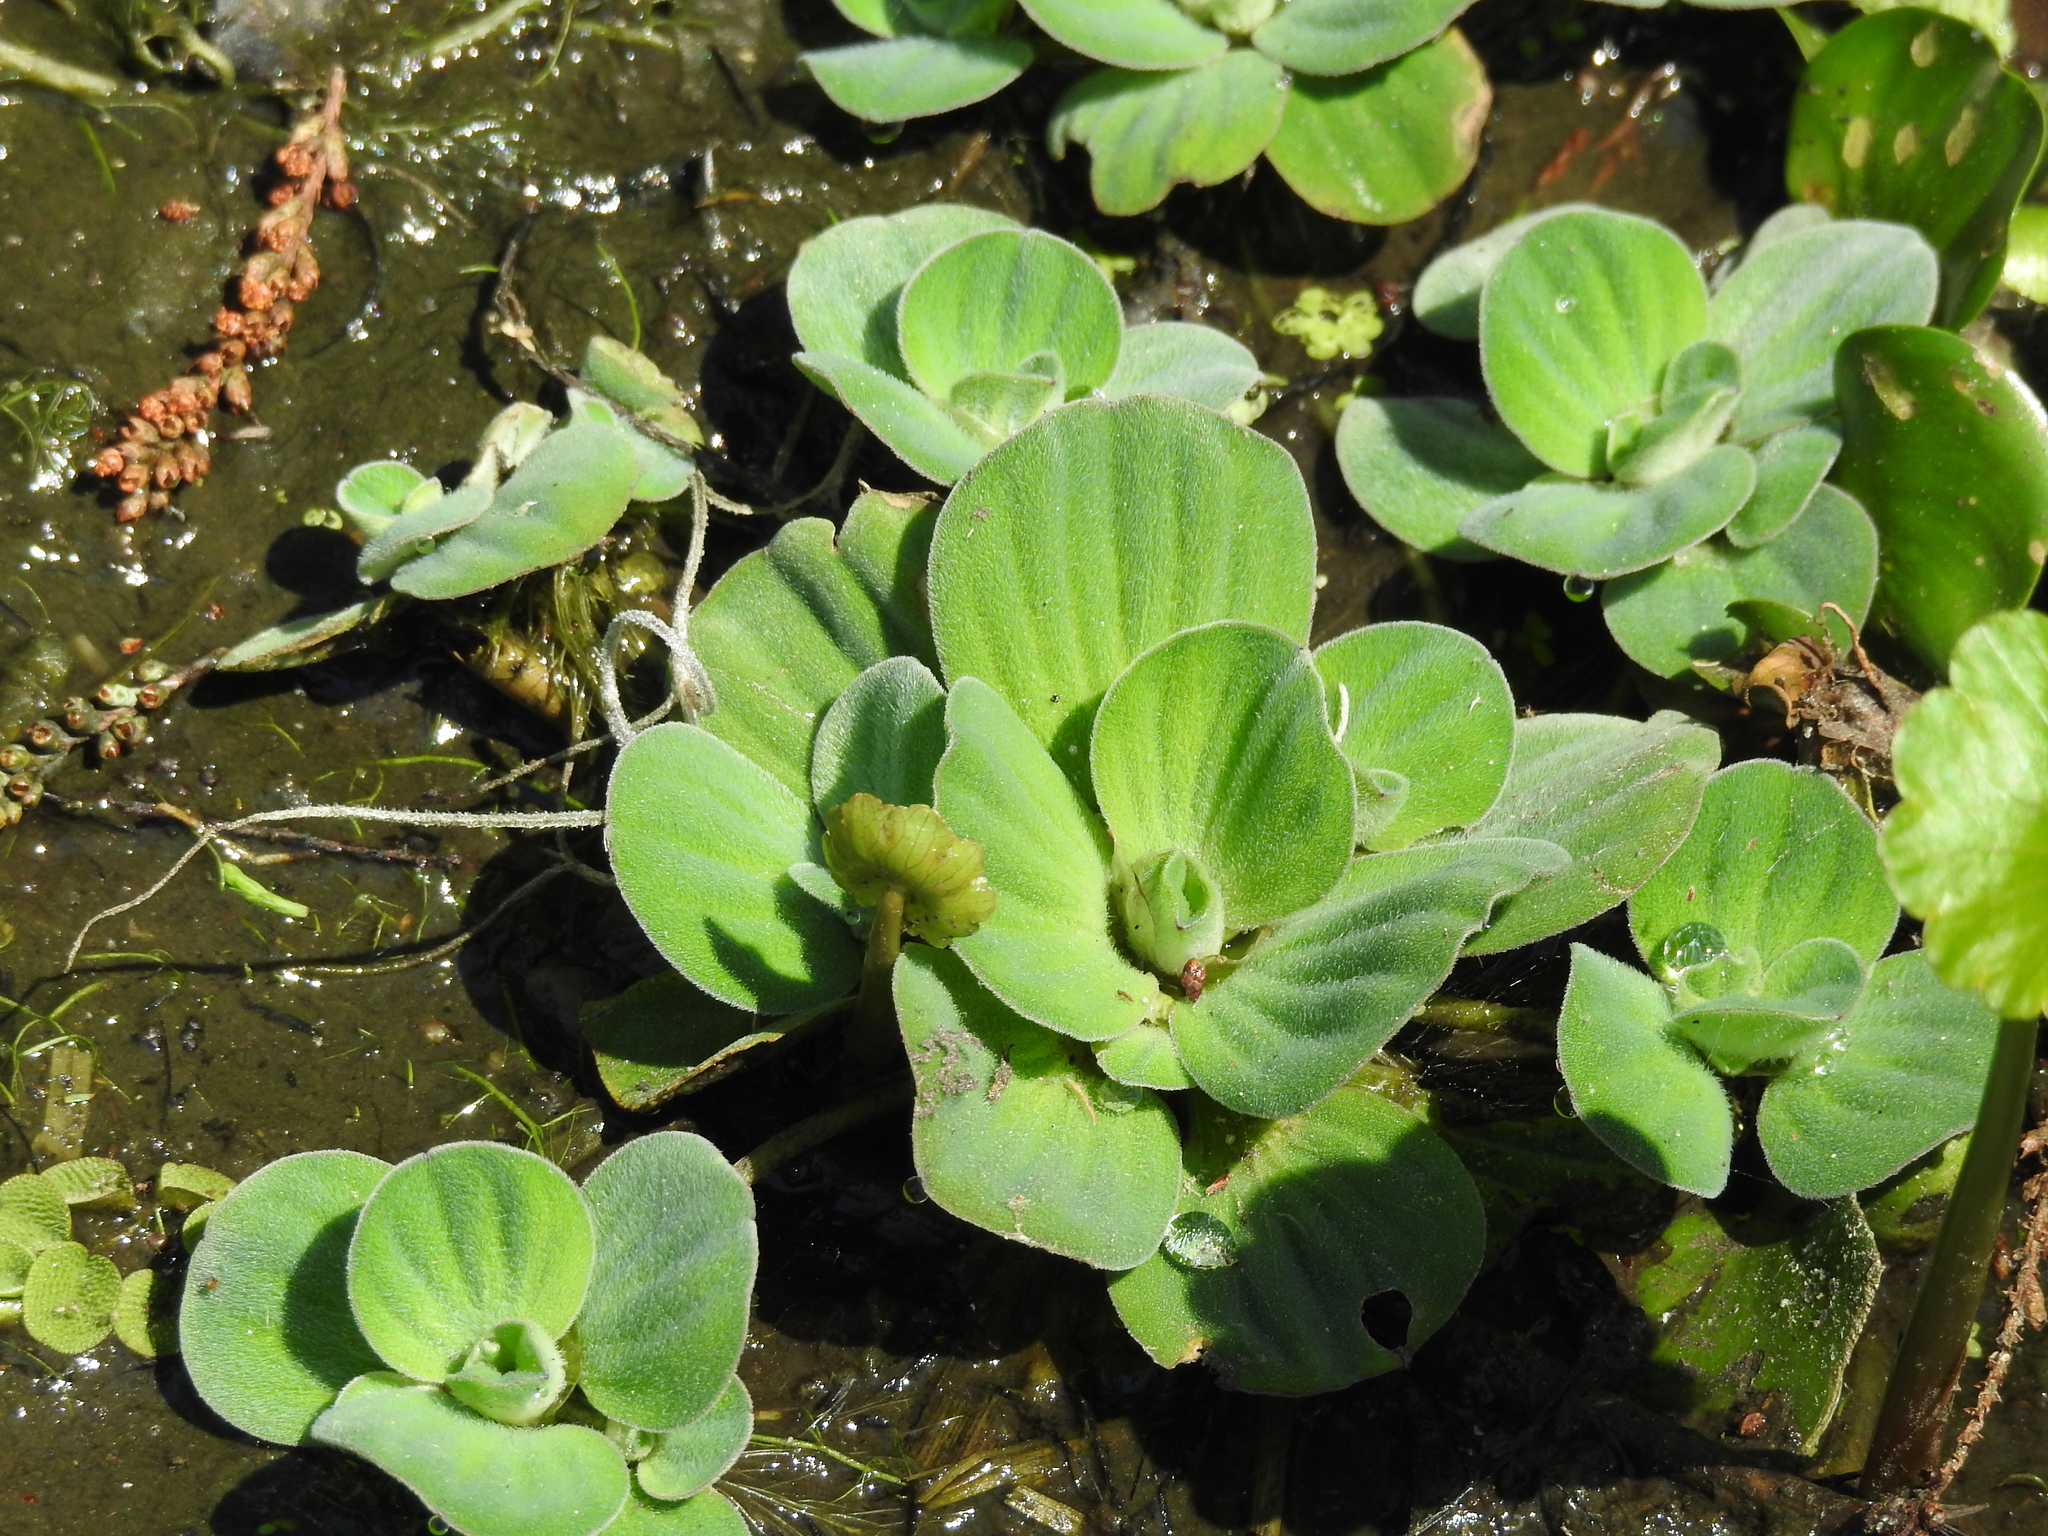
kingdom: Plantae
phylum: Tracheophyta
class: Liliopsida
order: Alismatales
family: Araceae
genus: Pistia
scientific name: Pistia stratiotes
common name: Water lettuce
